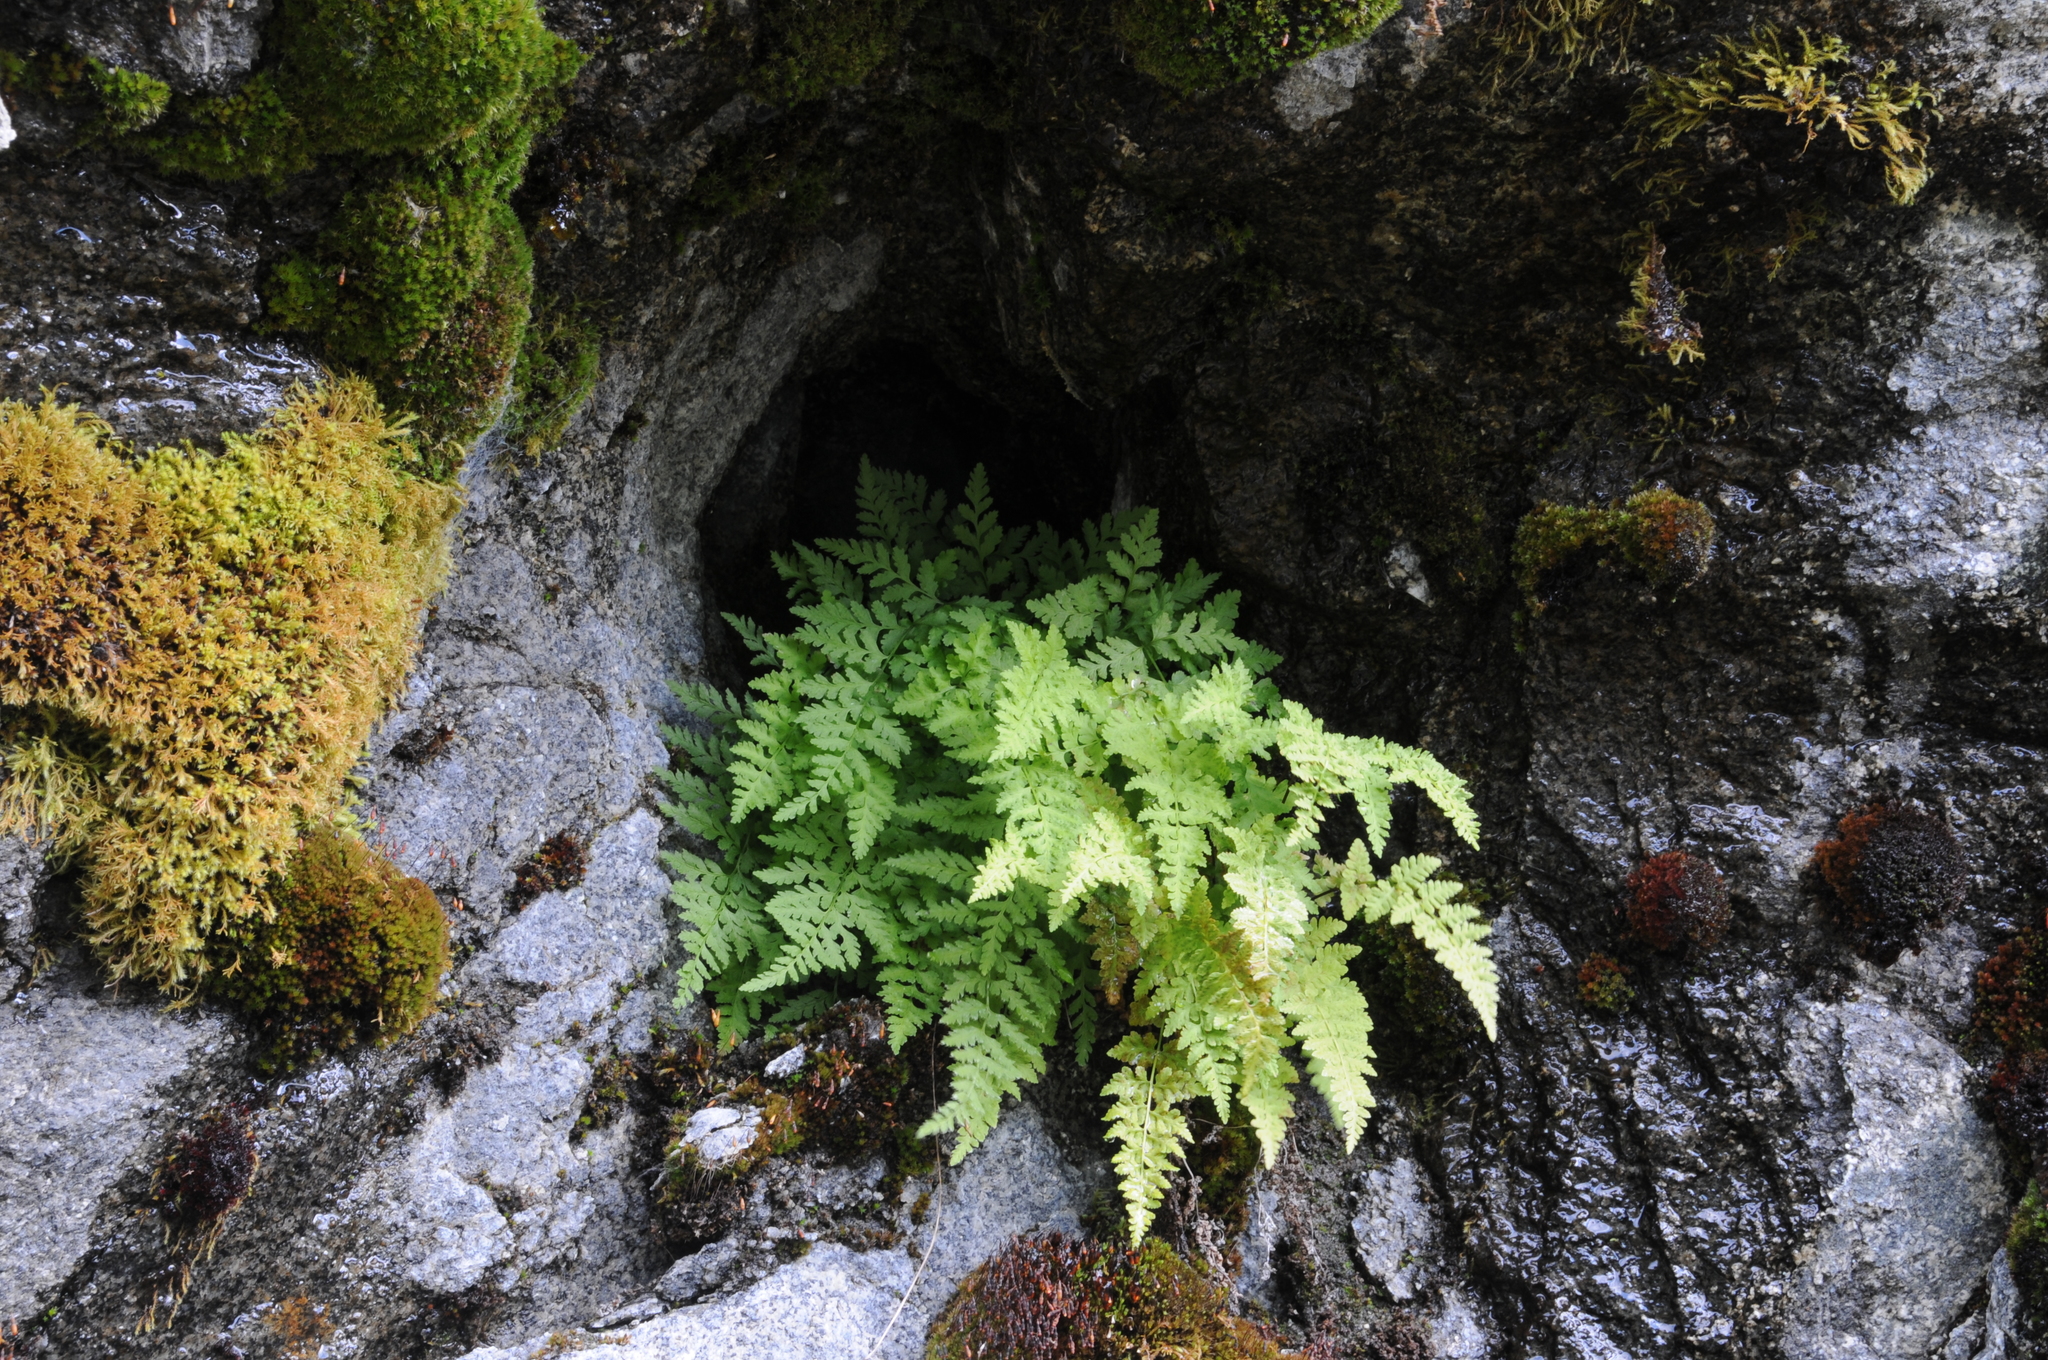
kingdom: Plantae
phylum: Tracheophyta
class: Polypodiopsida
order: Polypodiales
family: Cystopteridaceae
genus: Cystopteris
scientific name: Cystopteris fragilis
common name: Brittle bladder fern
